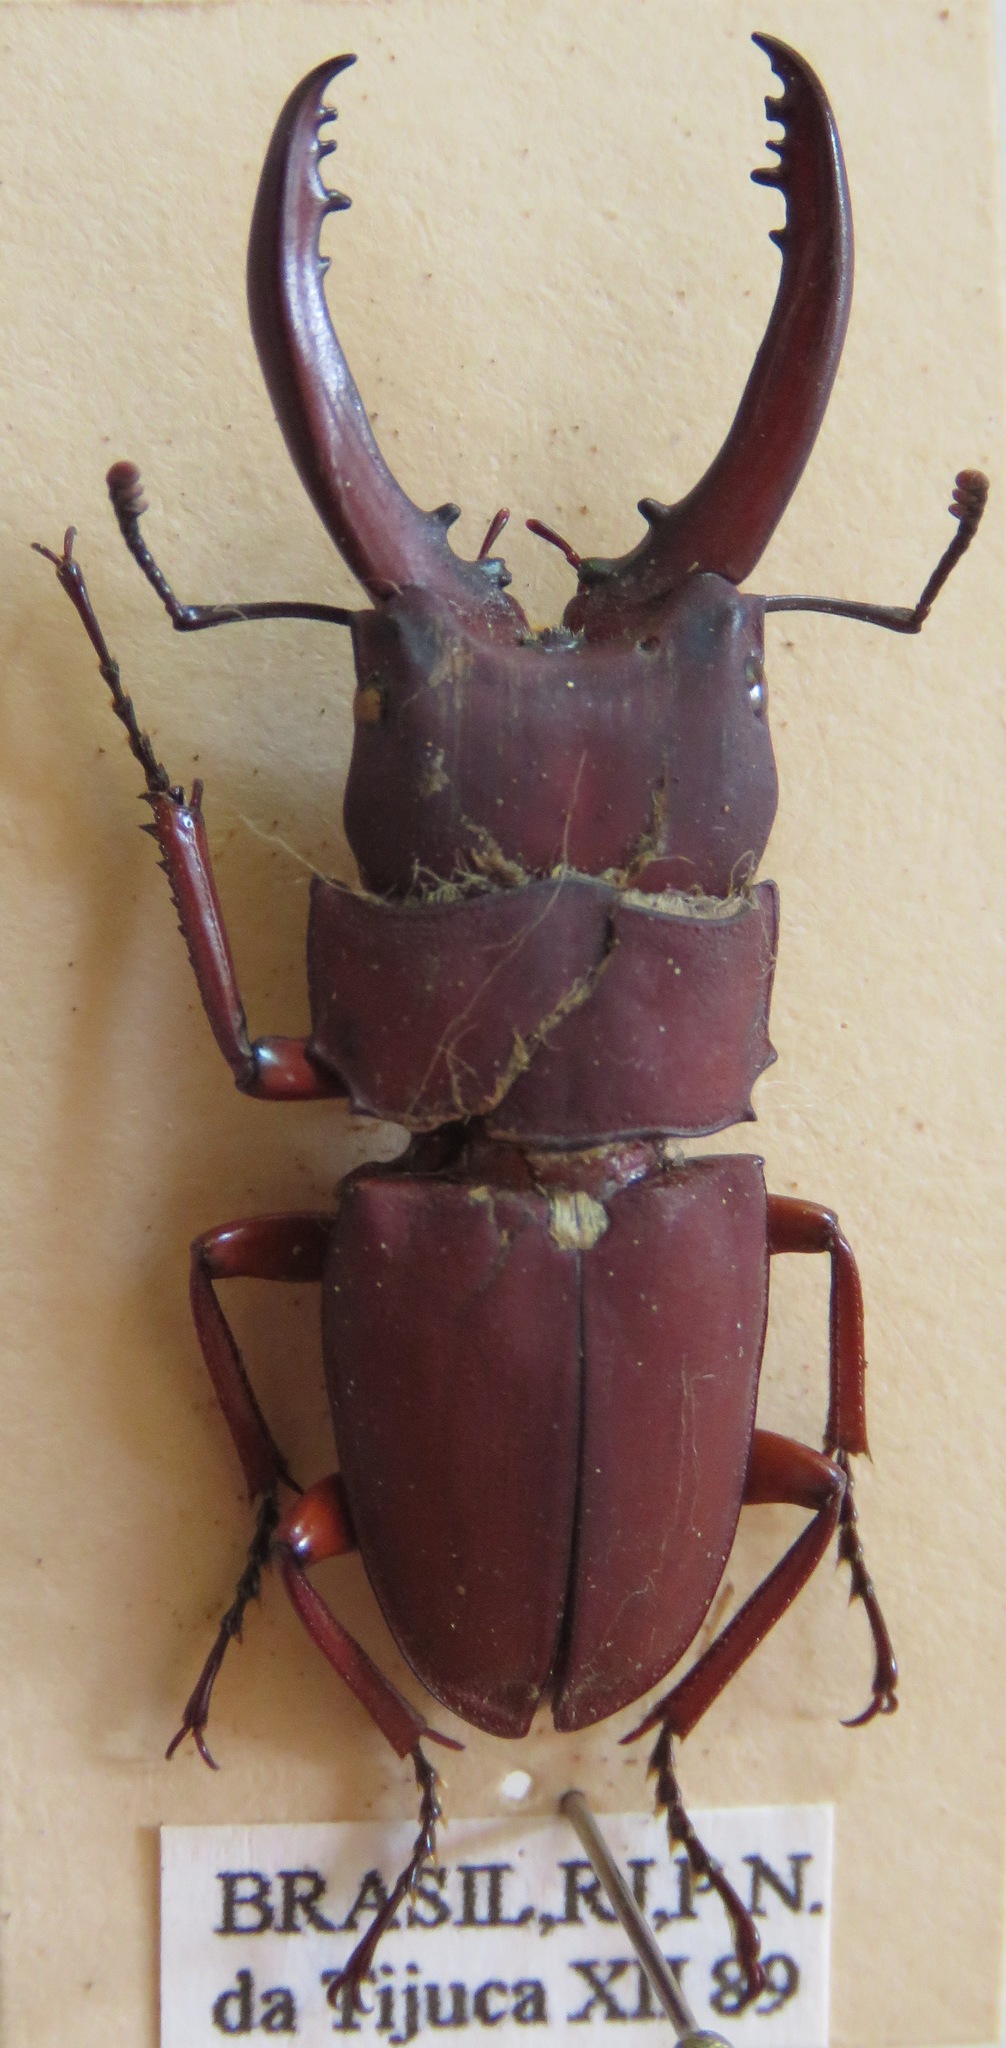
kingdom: Animalia
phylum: Arthropoda
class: Insecta
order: Coleoptera
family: Lucanidae
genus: Leptinopterus
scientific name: Leptinopterus ibex
